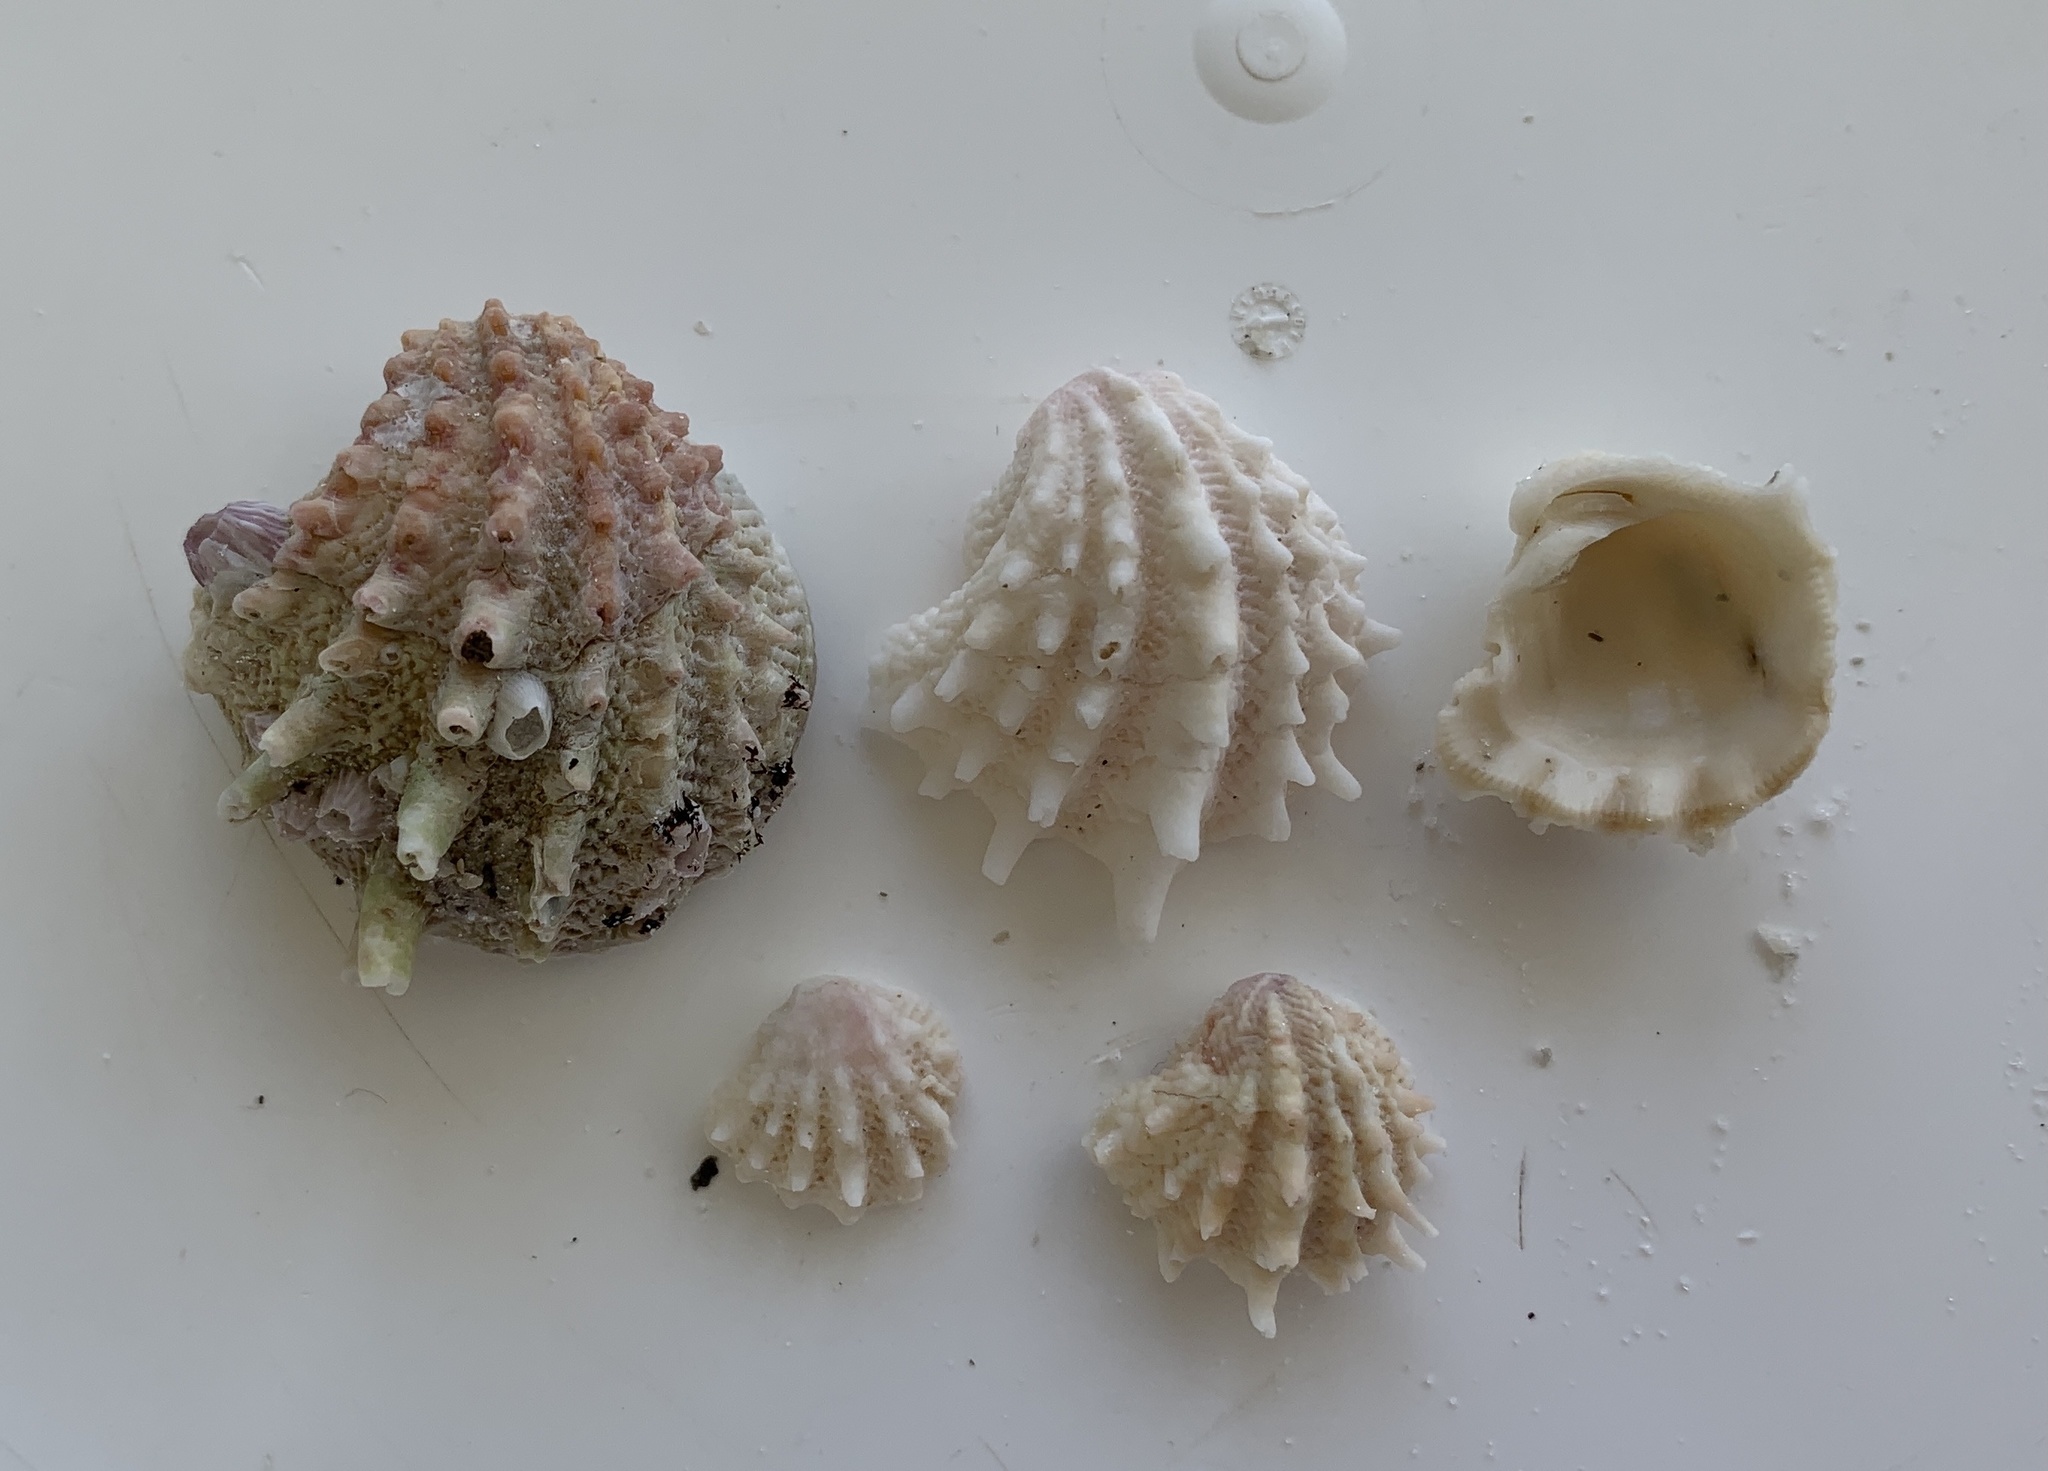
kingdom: Animalia
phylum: Mollusca
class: Bivalvia
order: Venerida
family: Chamidae
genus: Arcinella
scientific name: Arcinella cornuta
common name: Florida spiny jewel box
